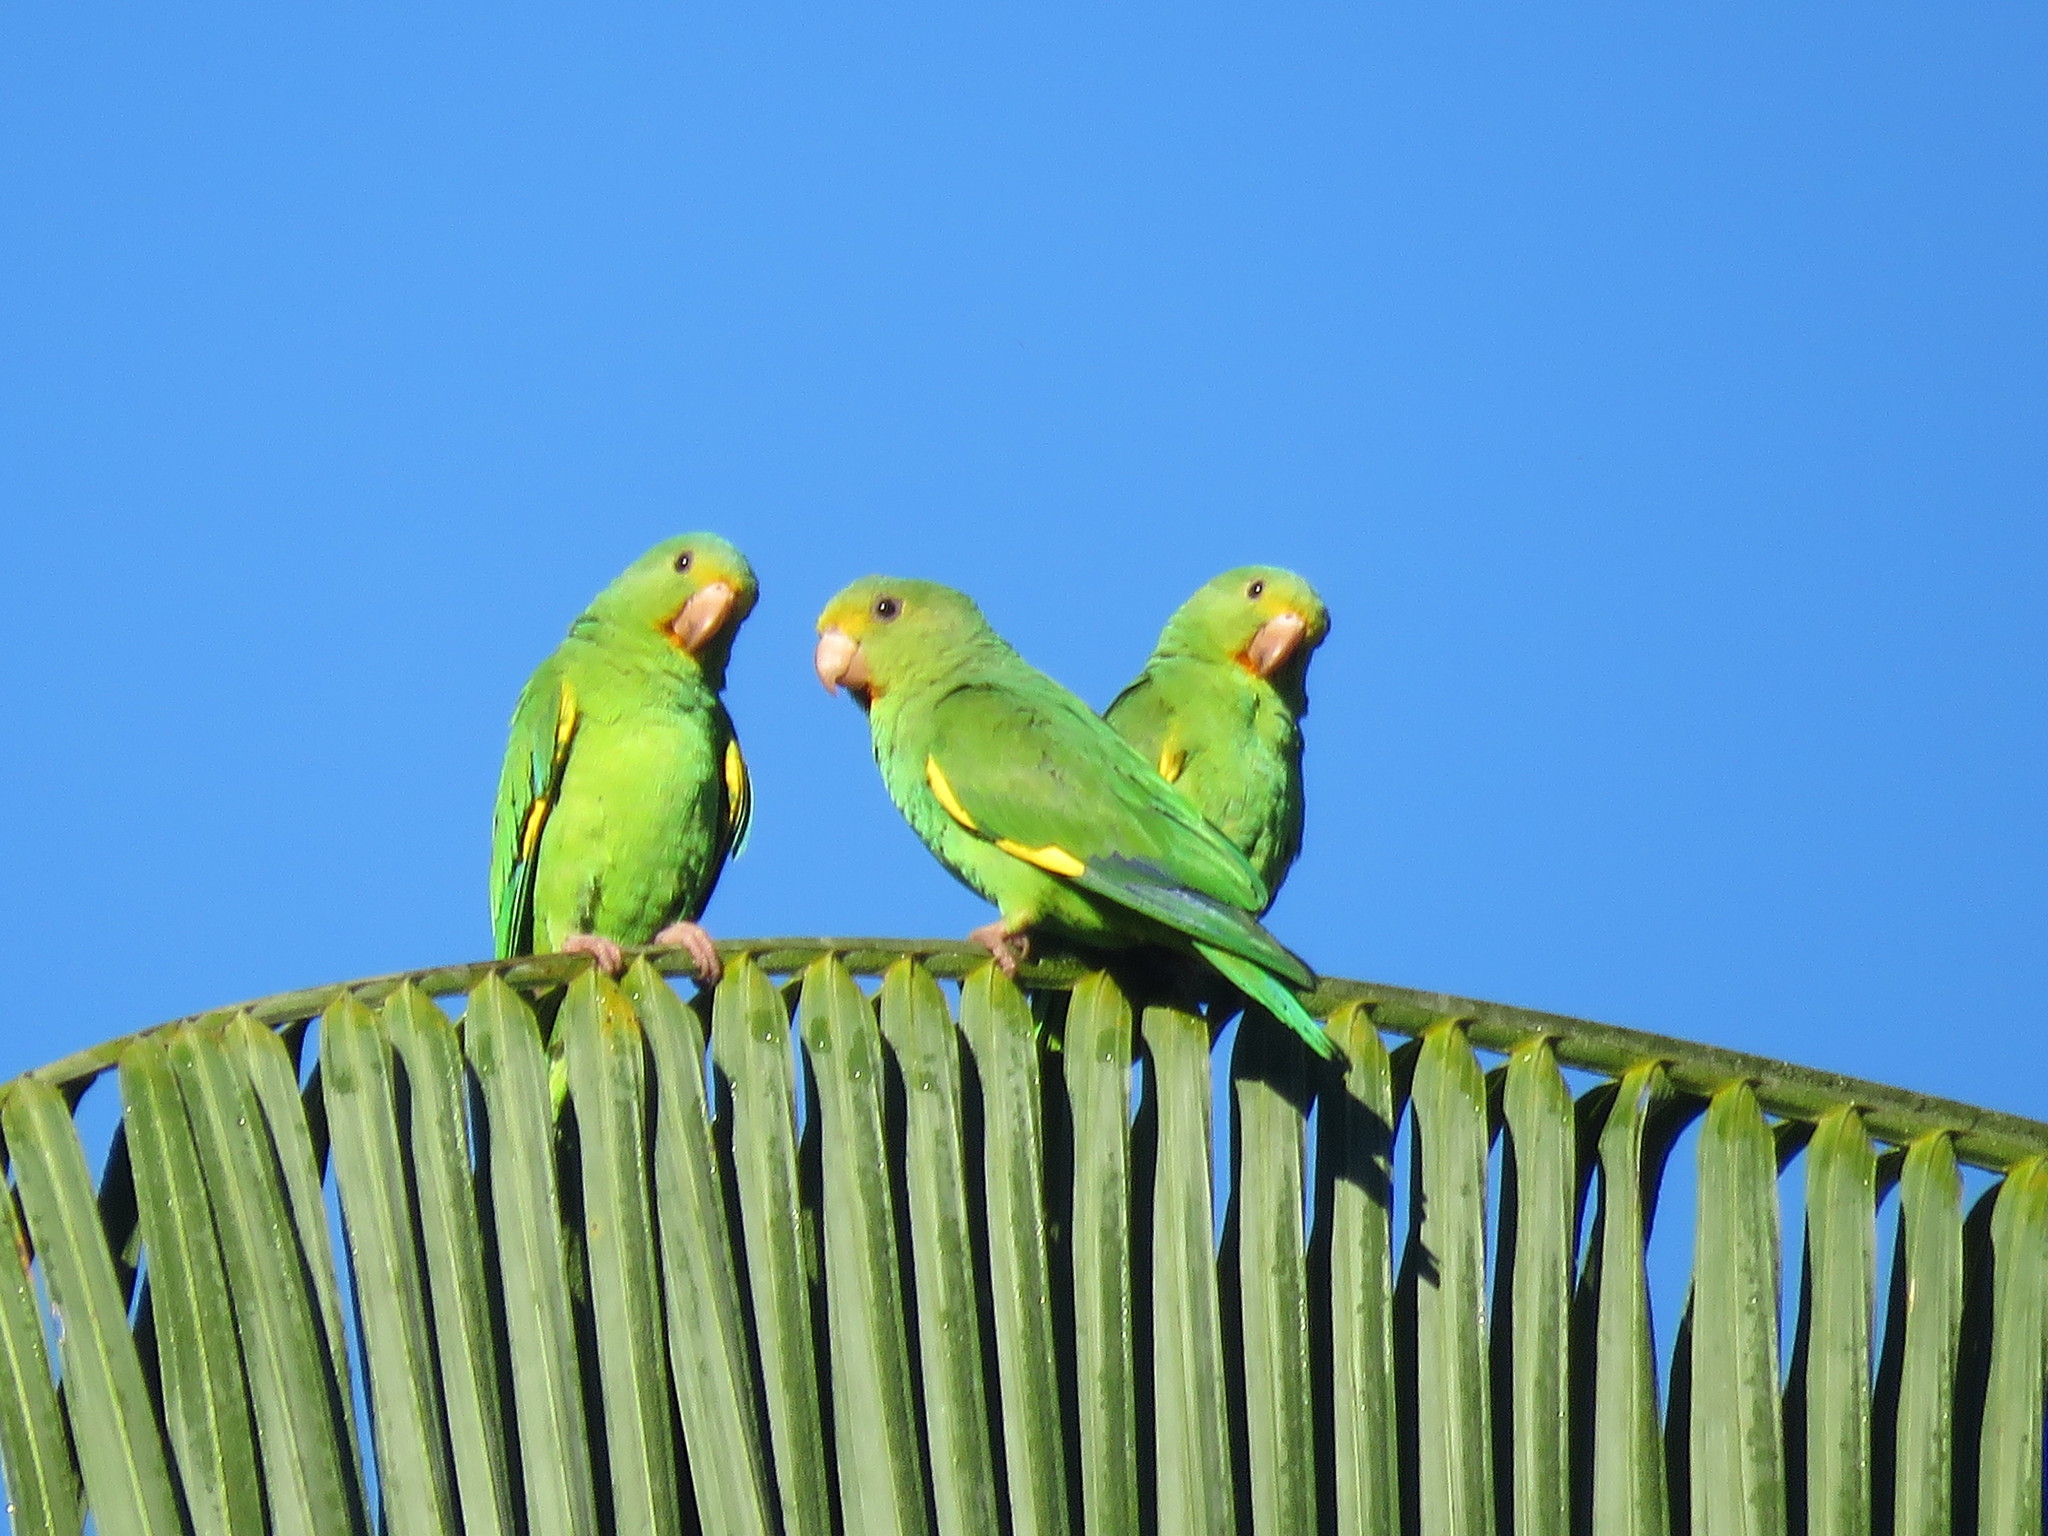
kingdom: Animalia
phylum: Chordata
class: Aves
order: Psittaciformes
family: Psittacidae
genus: Brotogeris
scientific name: Brotogeris cyanoptera
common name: Cobalt-winged parakeet
